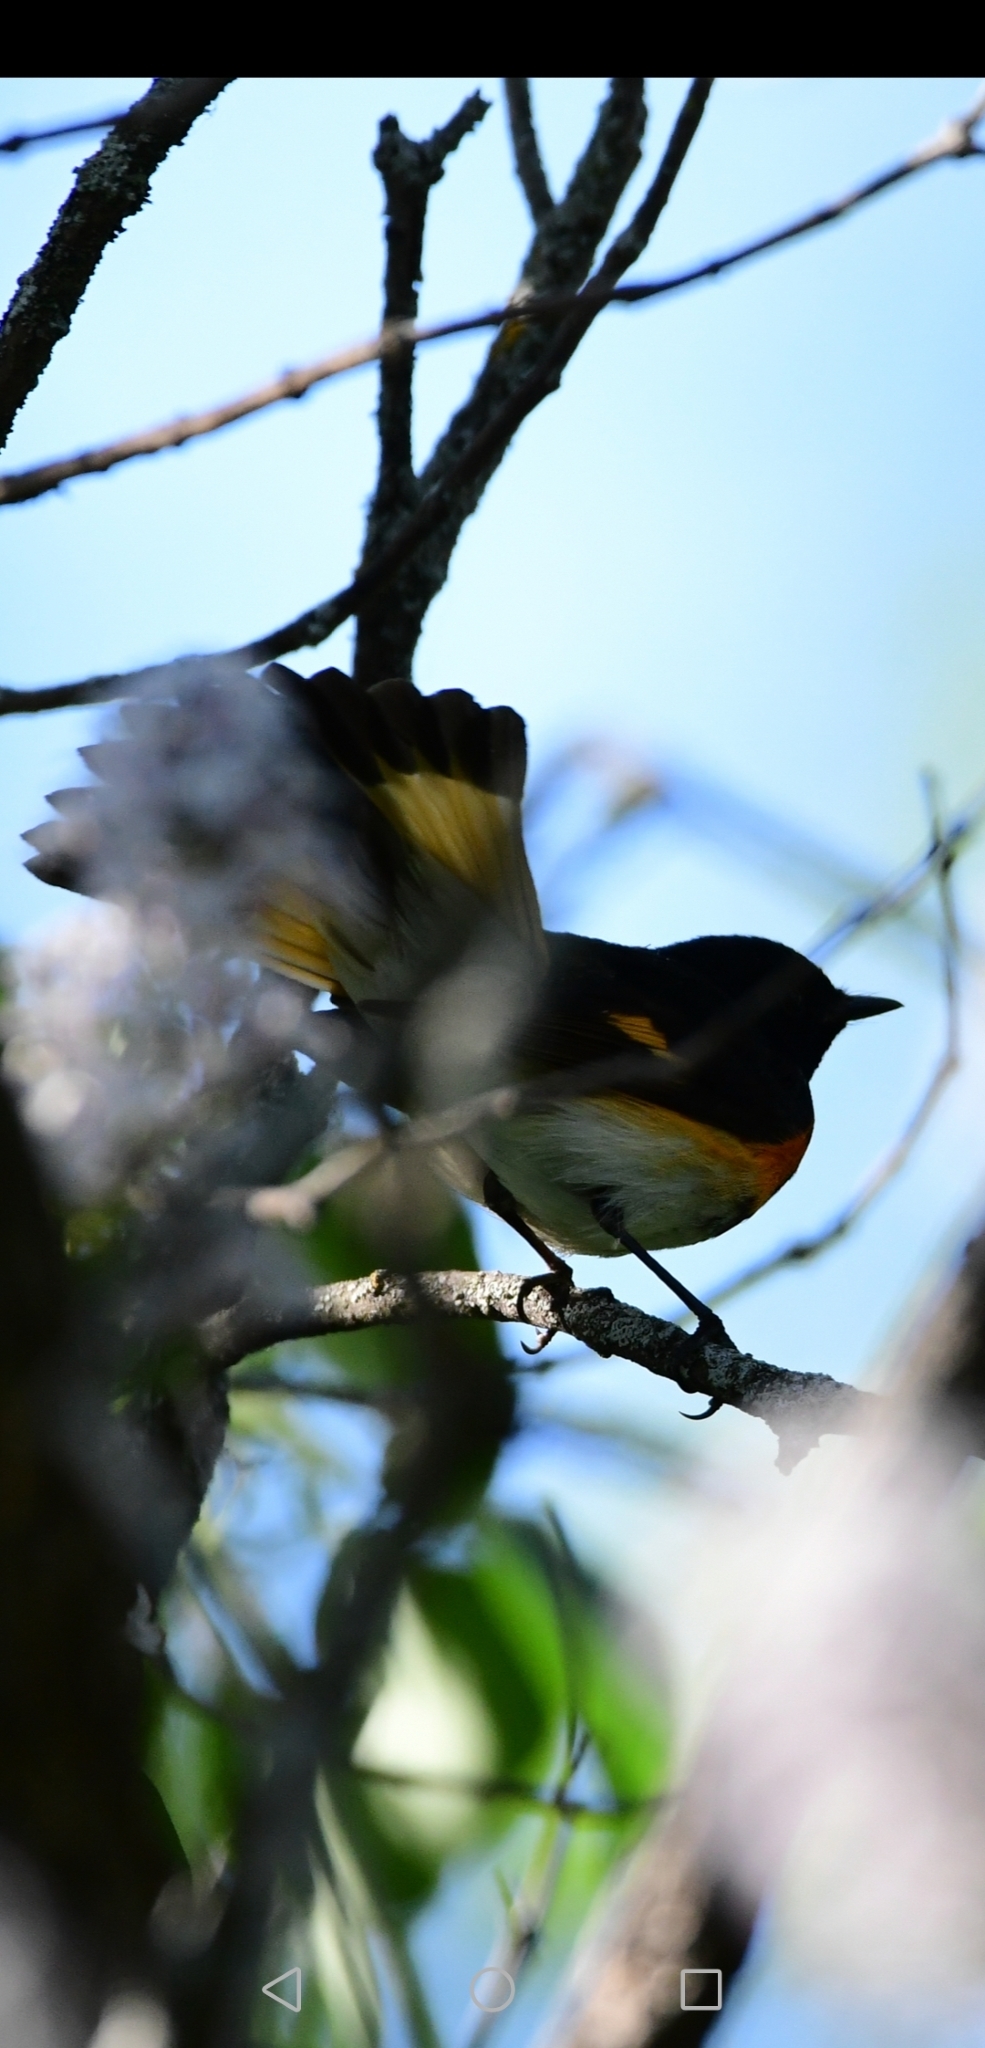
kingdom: Animalia
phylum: Chordata
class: Aves
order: Passeriformes
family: Parulidae
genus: Setophaga
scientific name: Setophaga ruticilla
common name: American redstart
